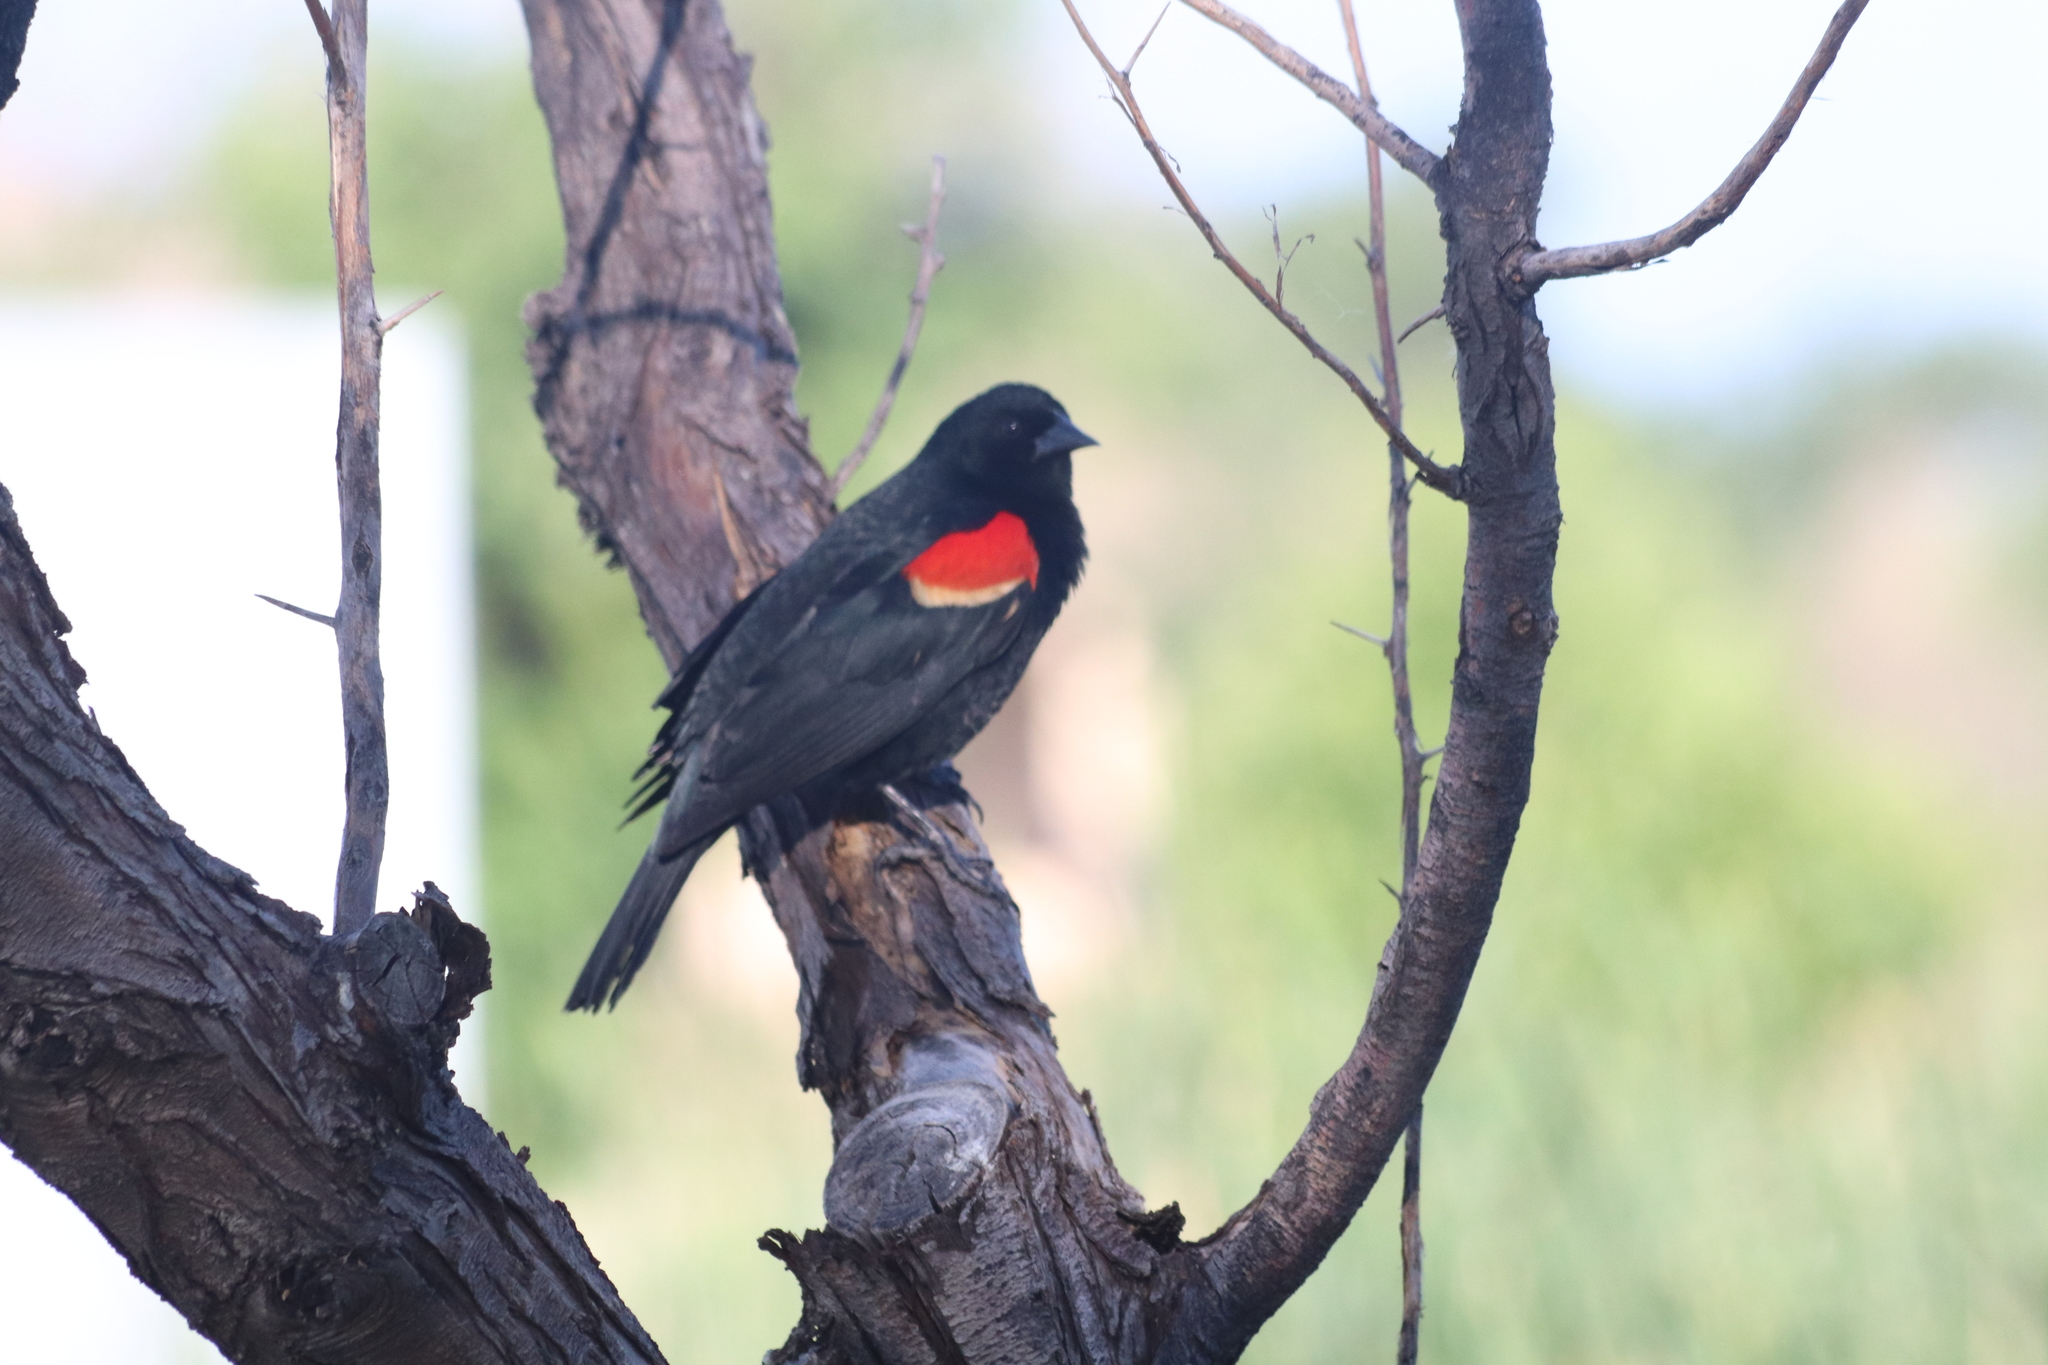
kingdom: Animalia
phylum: Chordata
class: Aves
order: Passeriformes
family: Icteridae
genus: Agelaius
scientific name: Agelaius phoeniceus
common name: Red-winged blackbird
